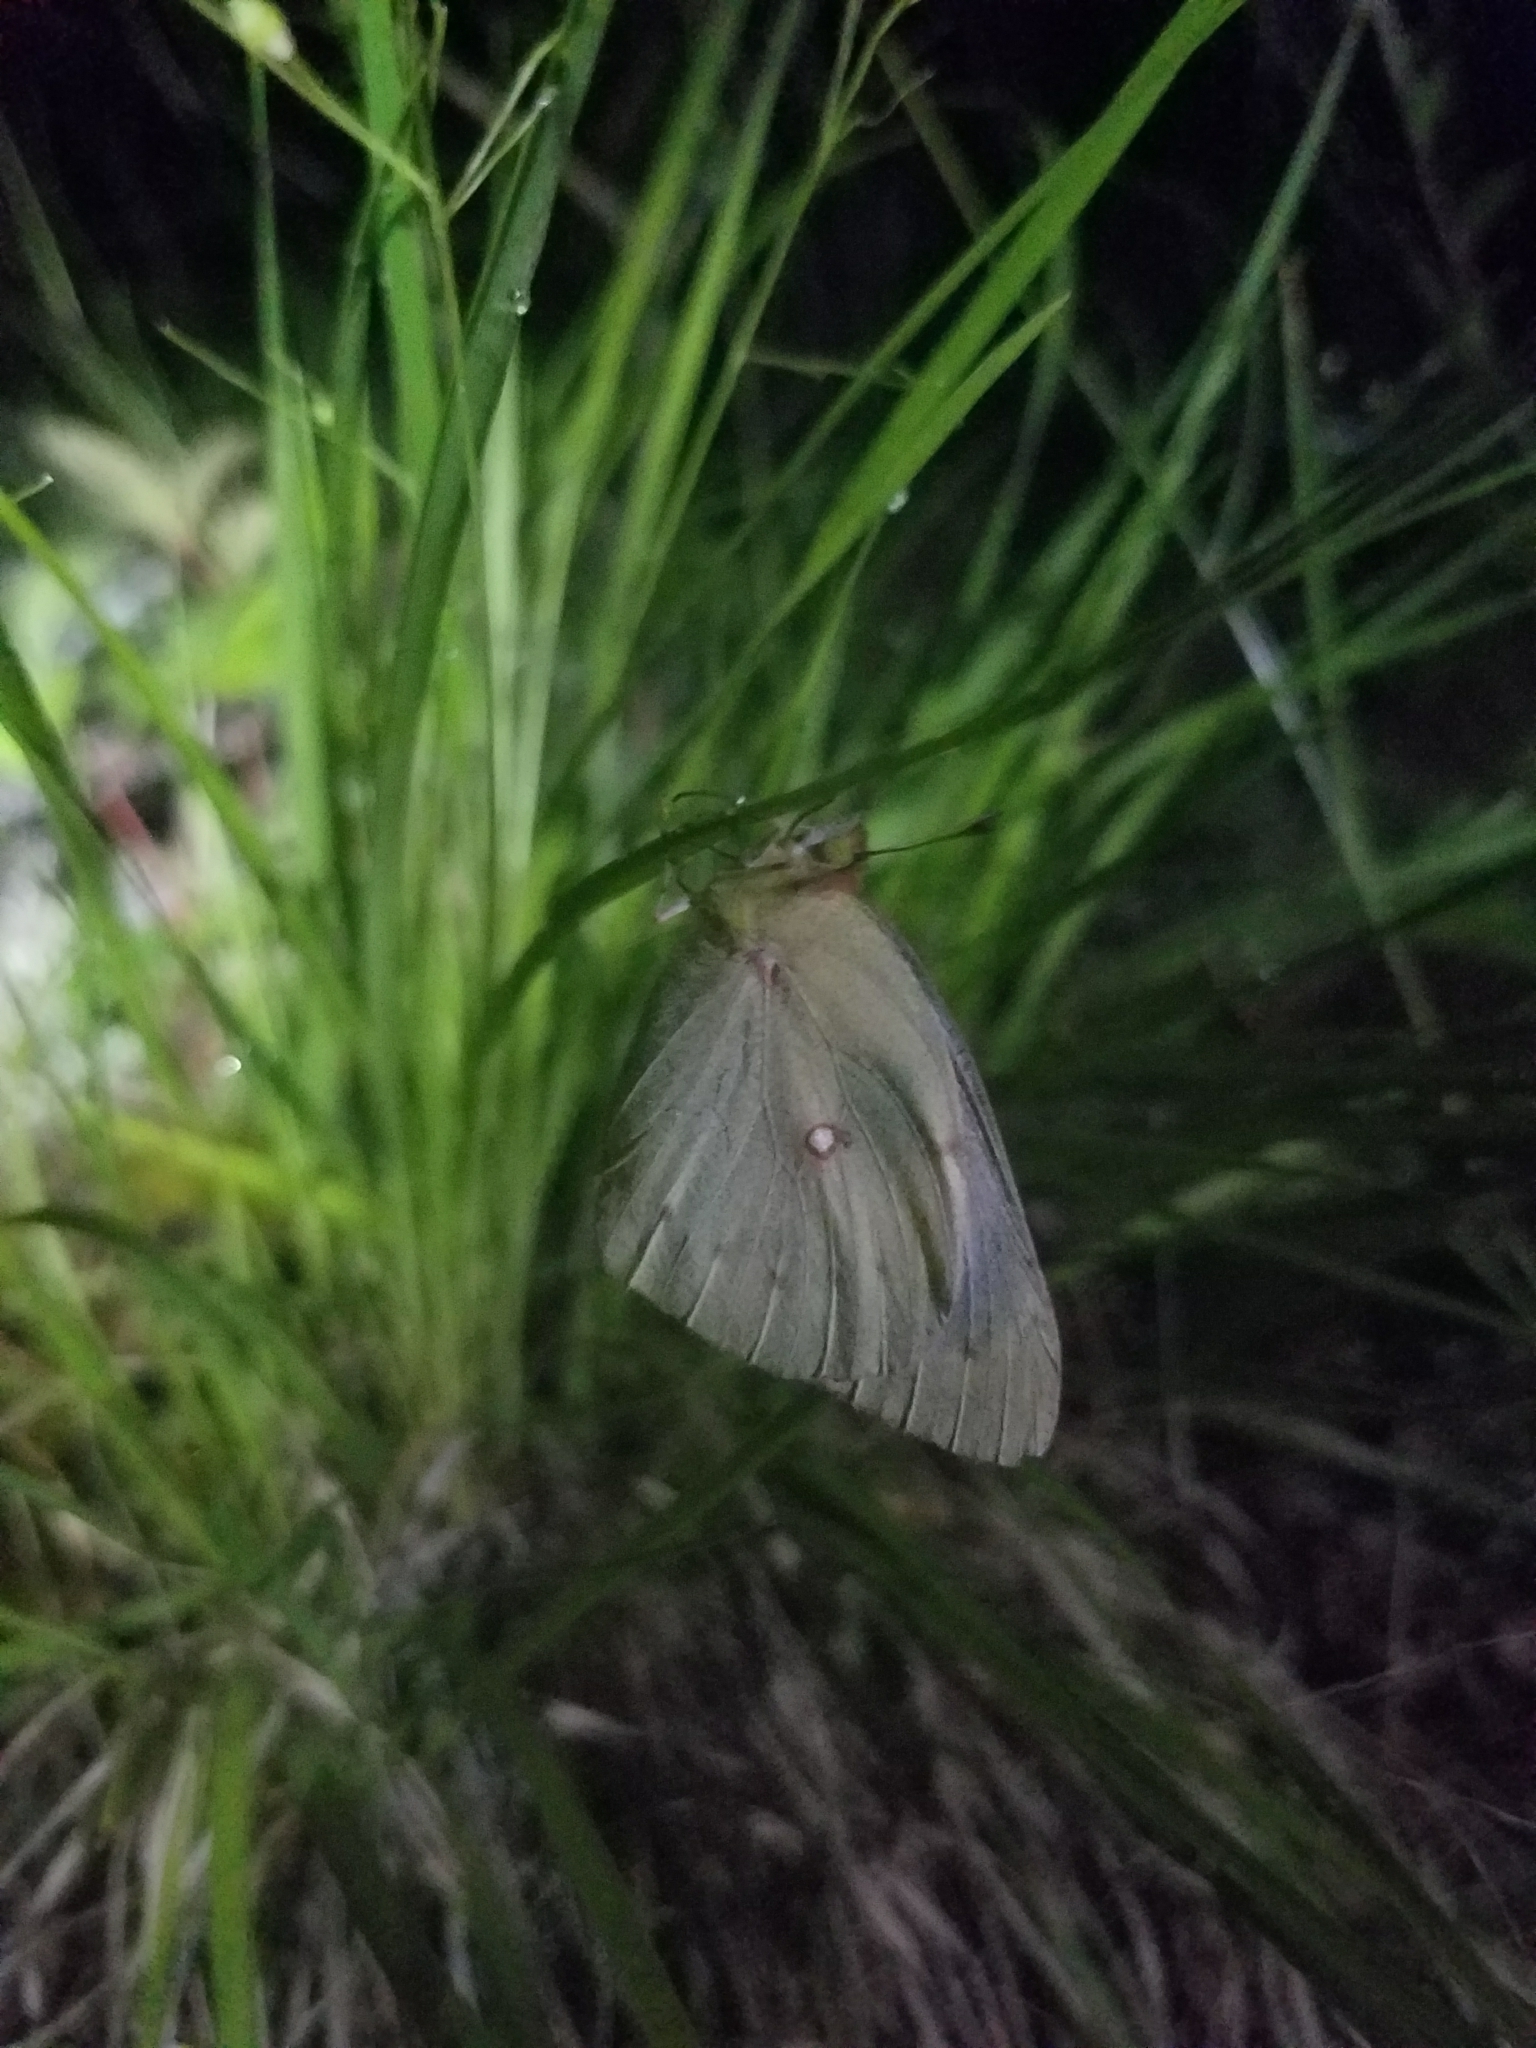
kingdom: Animalia
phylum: Arthropoda
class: Insecta
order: Lepidoptera
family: Pieridae
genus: Colias
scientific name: Colias eurytheme
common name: Alfalfa butterfly
